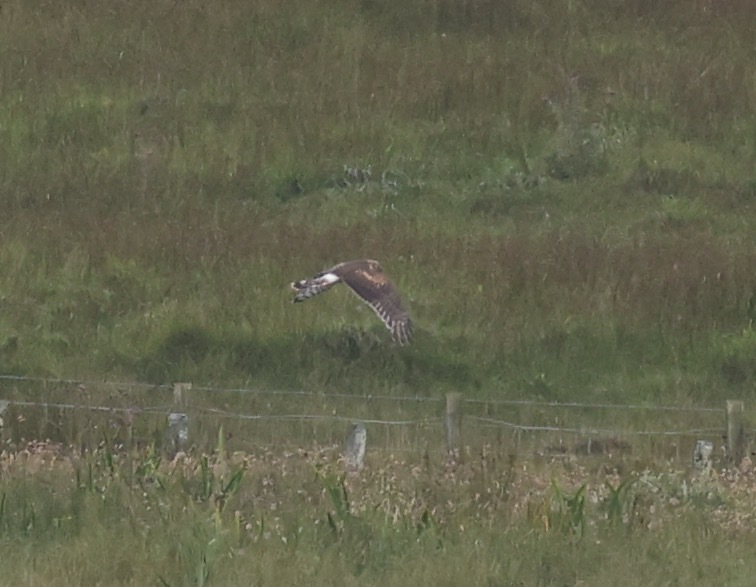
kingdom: Animalia
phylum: Chordata
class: Aves
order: Accipitriformes
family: Accipitridae
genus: Circus
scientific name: Circus cyaneus
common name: Hen harrier
